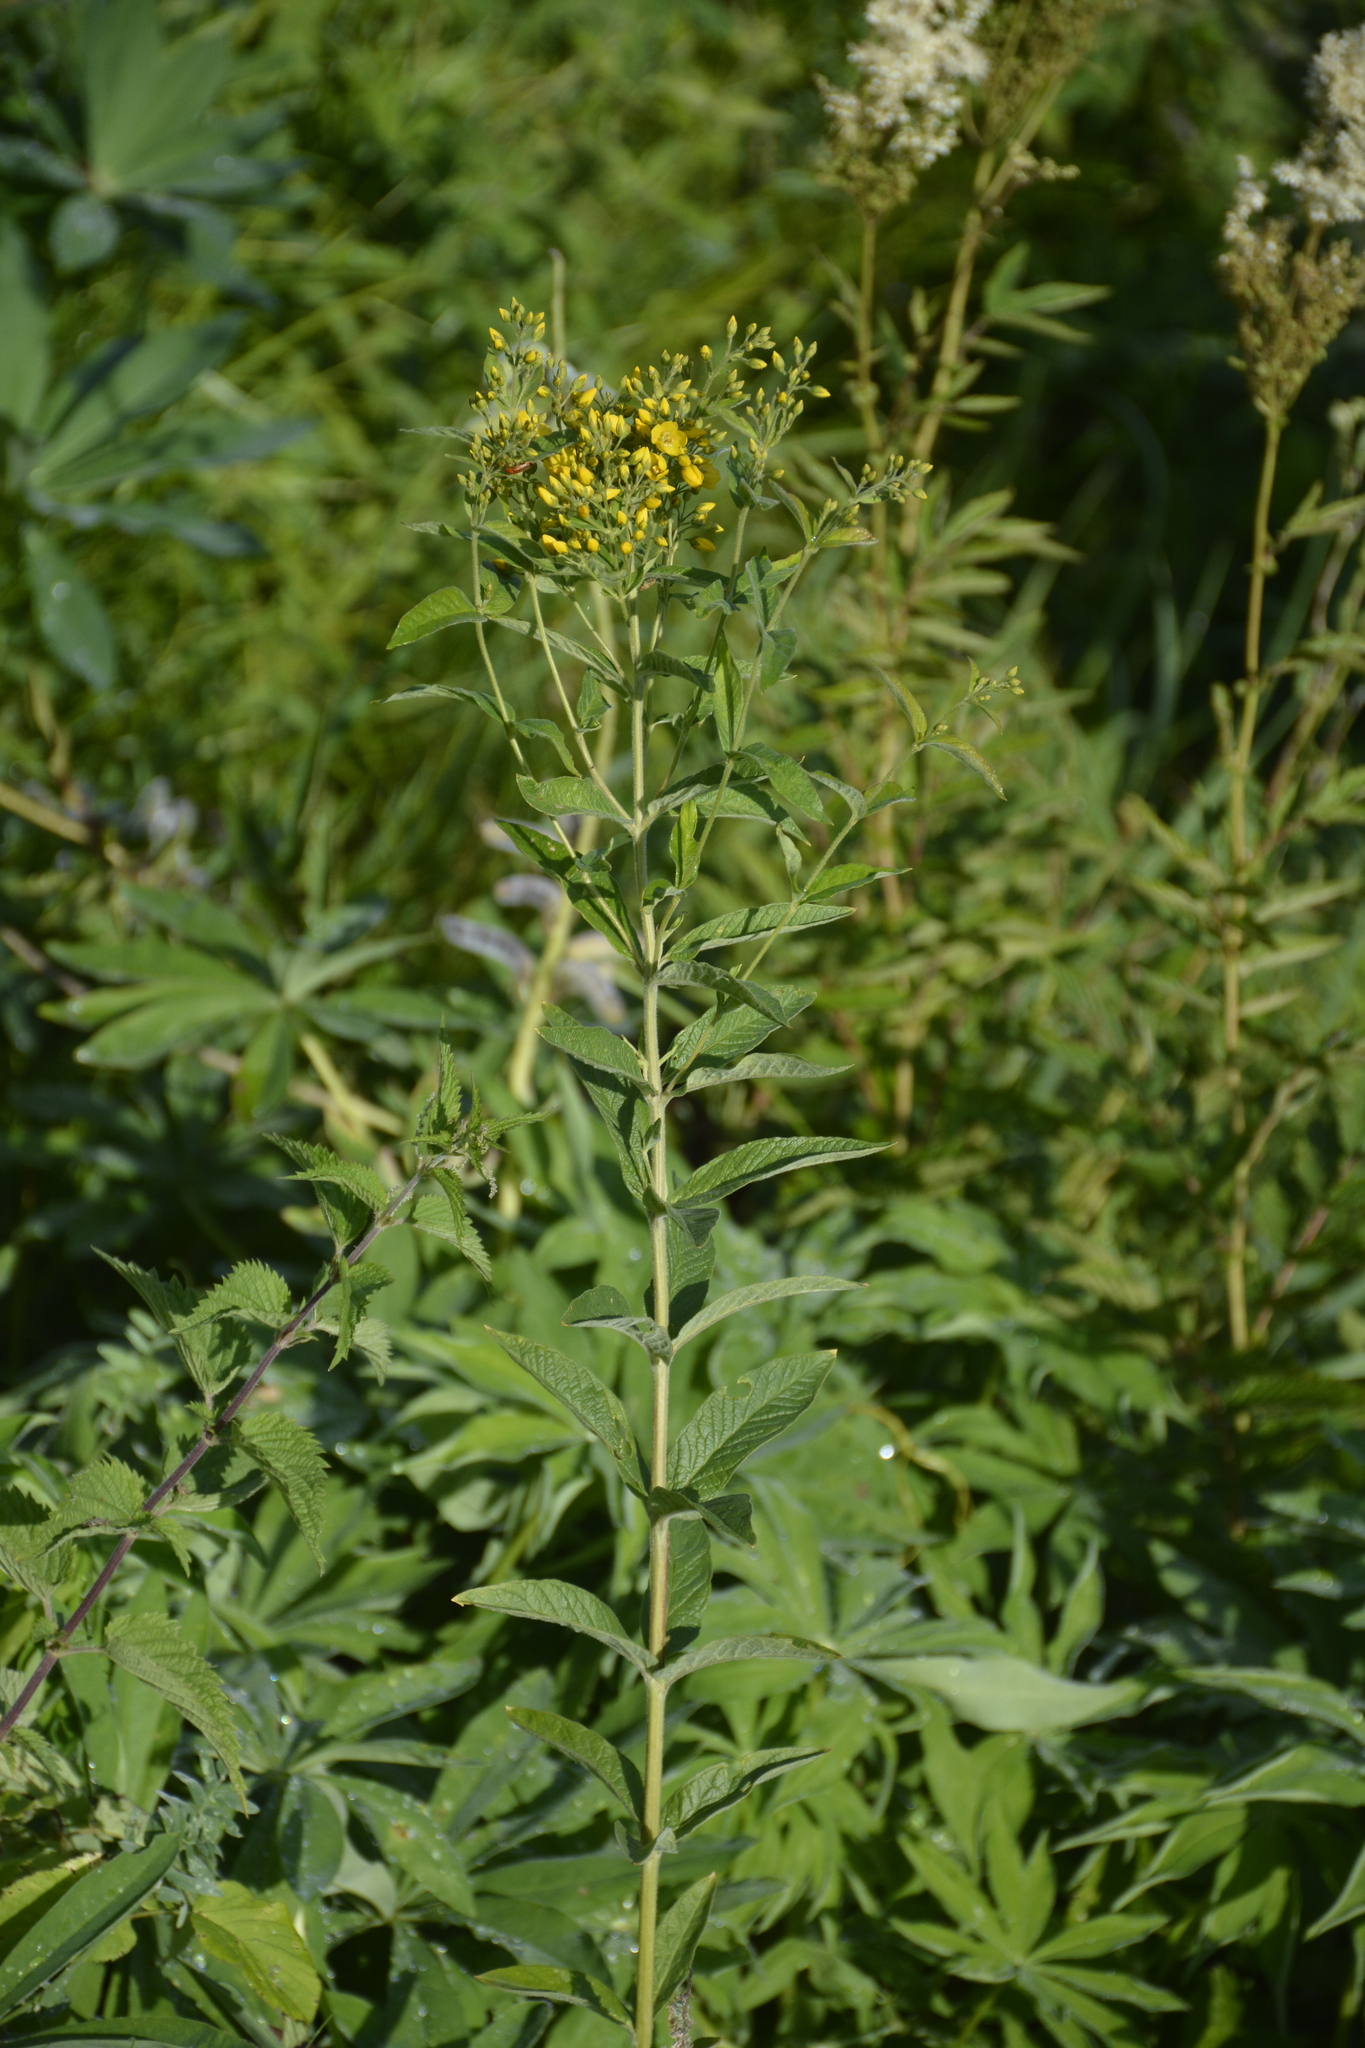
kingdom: Plantae
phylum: Tracheophyta
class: Magnoliopsida
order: Ericales
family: Primulaceae
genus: Lysimachia
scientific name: Lysimachia vulgaris
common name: Yellow loosestrife
